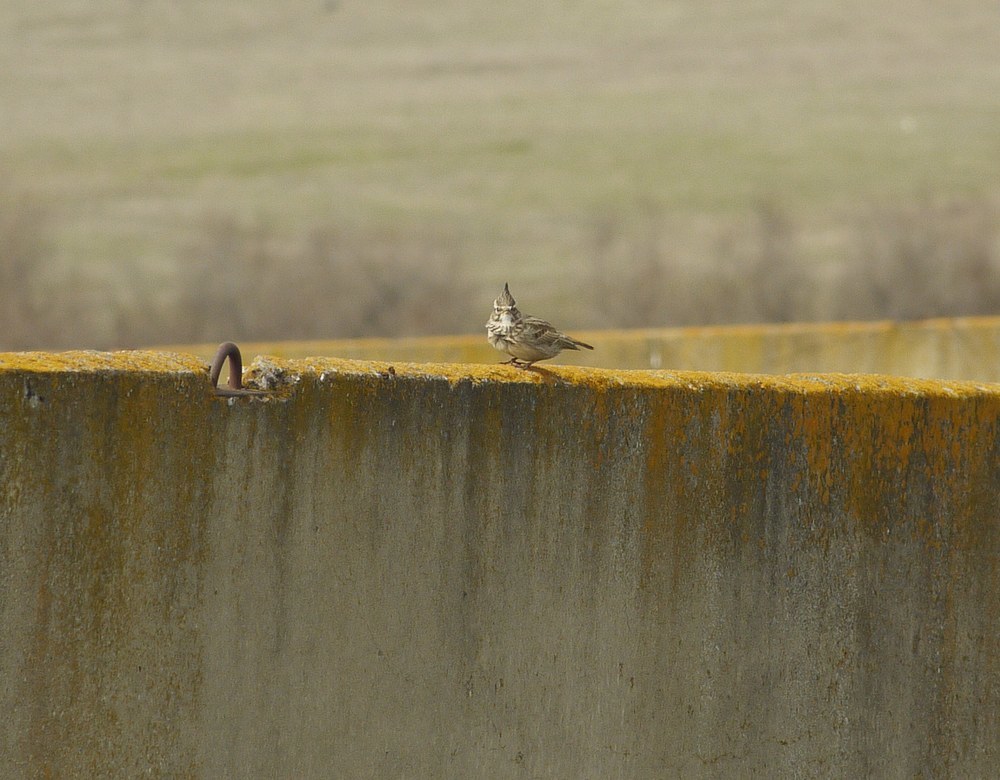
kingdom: Animalia
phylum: Chordata
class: Aves
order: Passeriformes
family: Alaudidae
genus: Galerida
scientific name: Galerida cristata
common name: Crested lark
